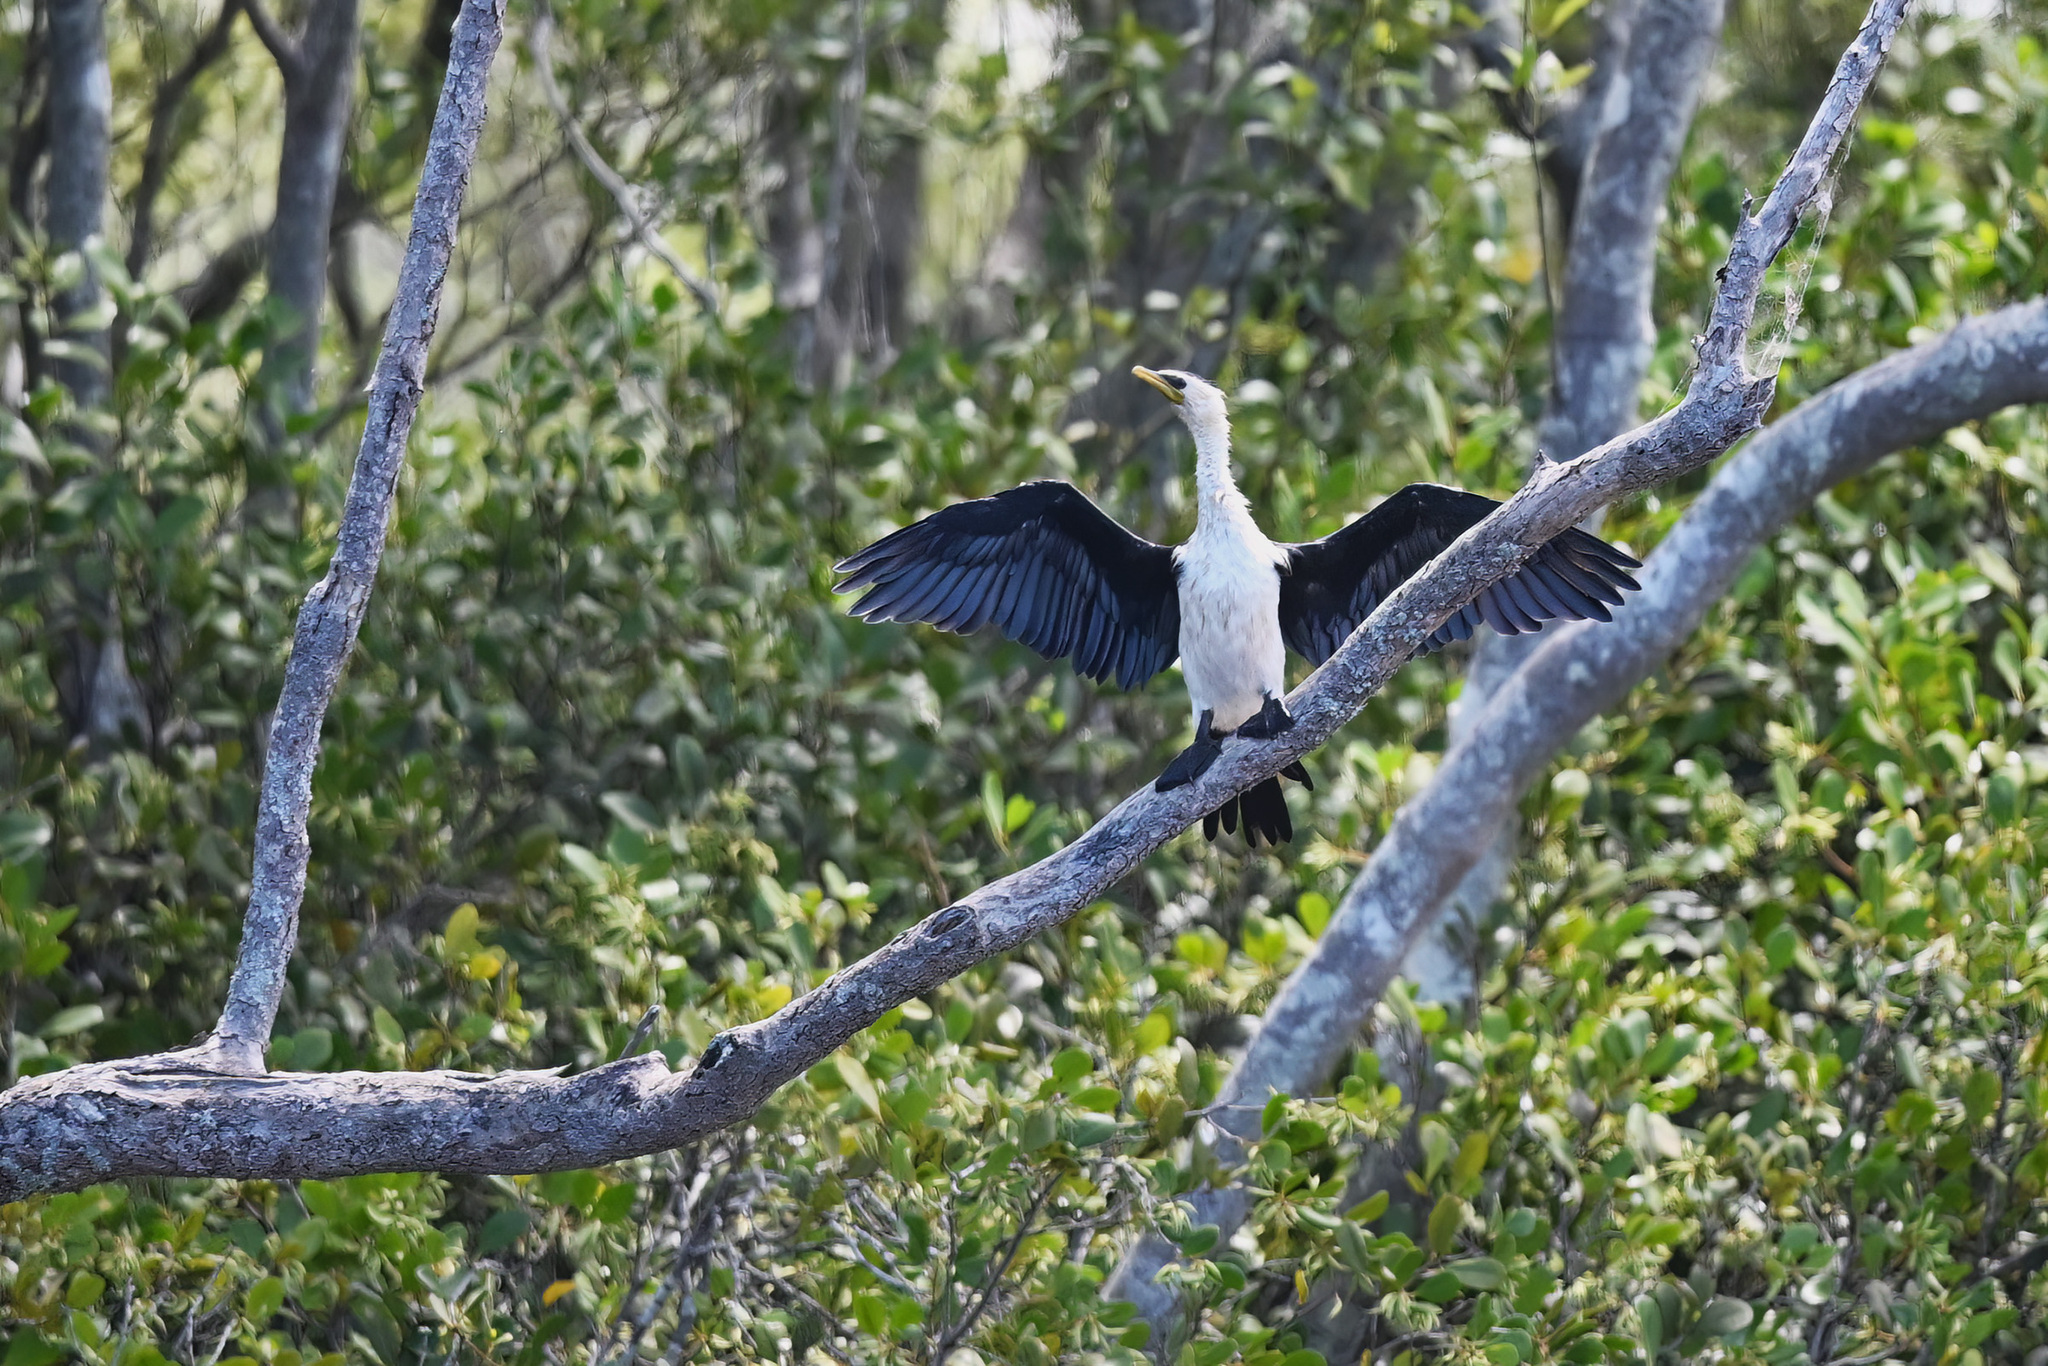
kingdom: Animalia
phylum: Chordata
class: Aves
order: Suliformes
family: Phalacrocoracidae
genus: Microcarbo
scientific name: Microcarbo melanoleucos
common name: Little pied cormorant
